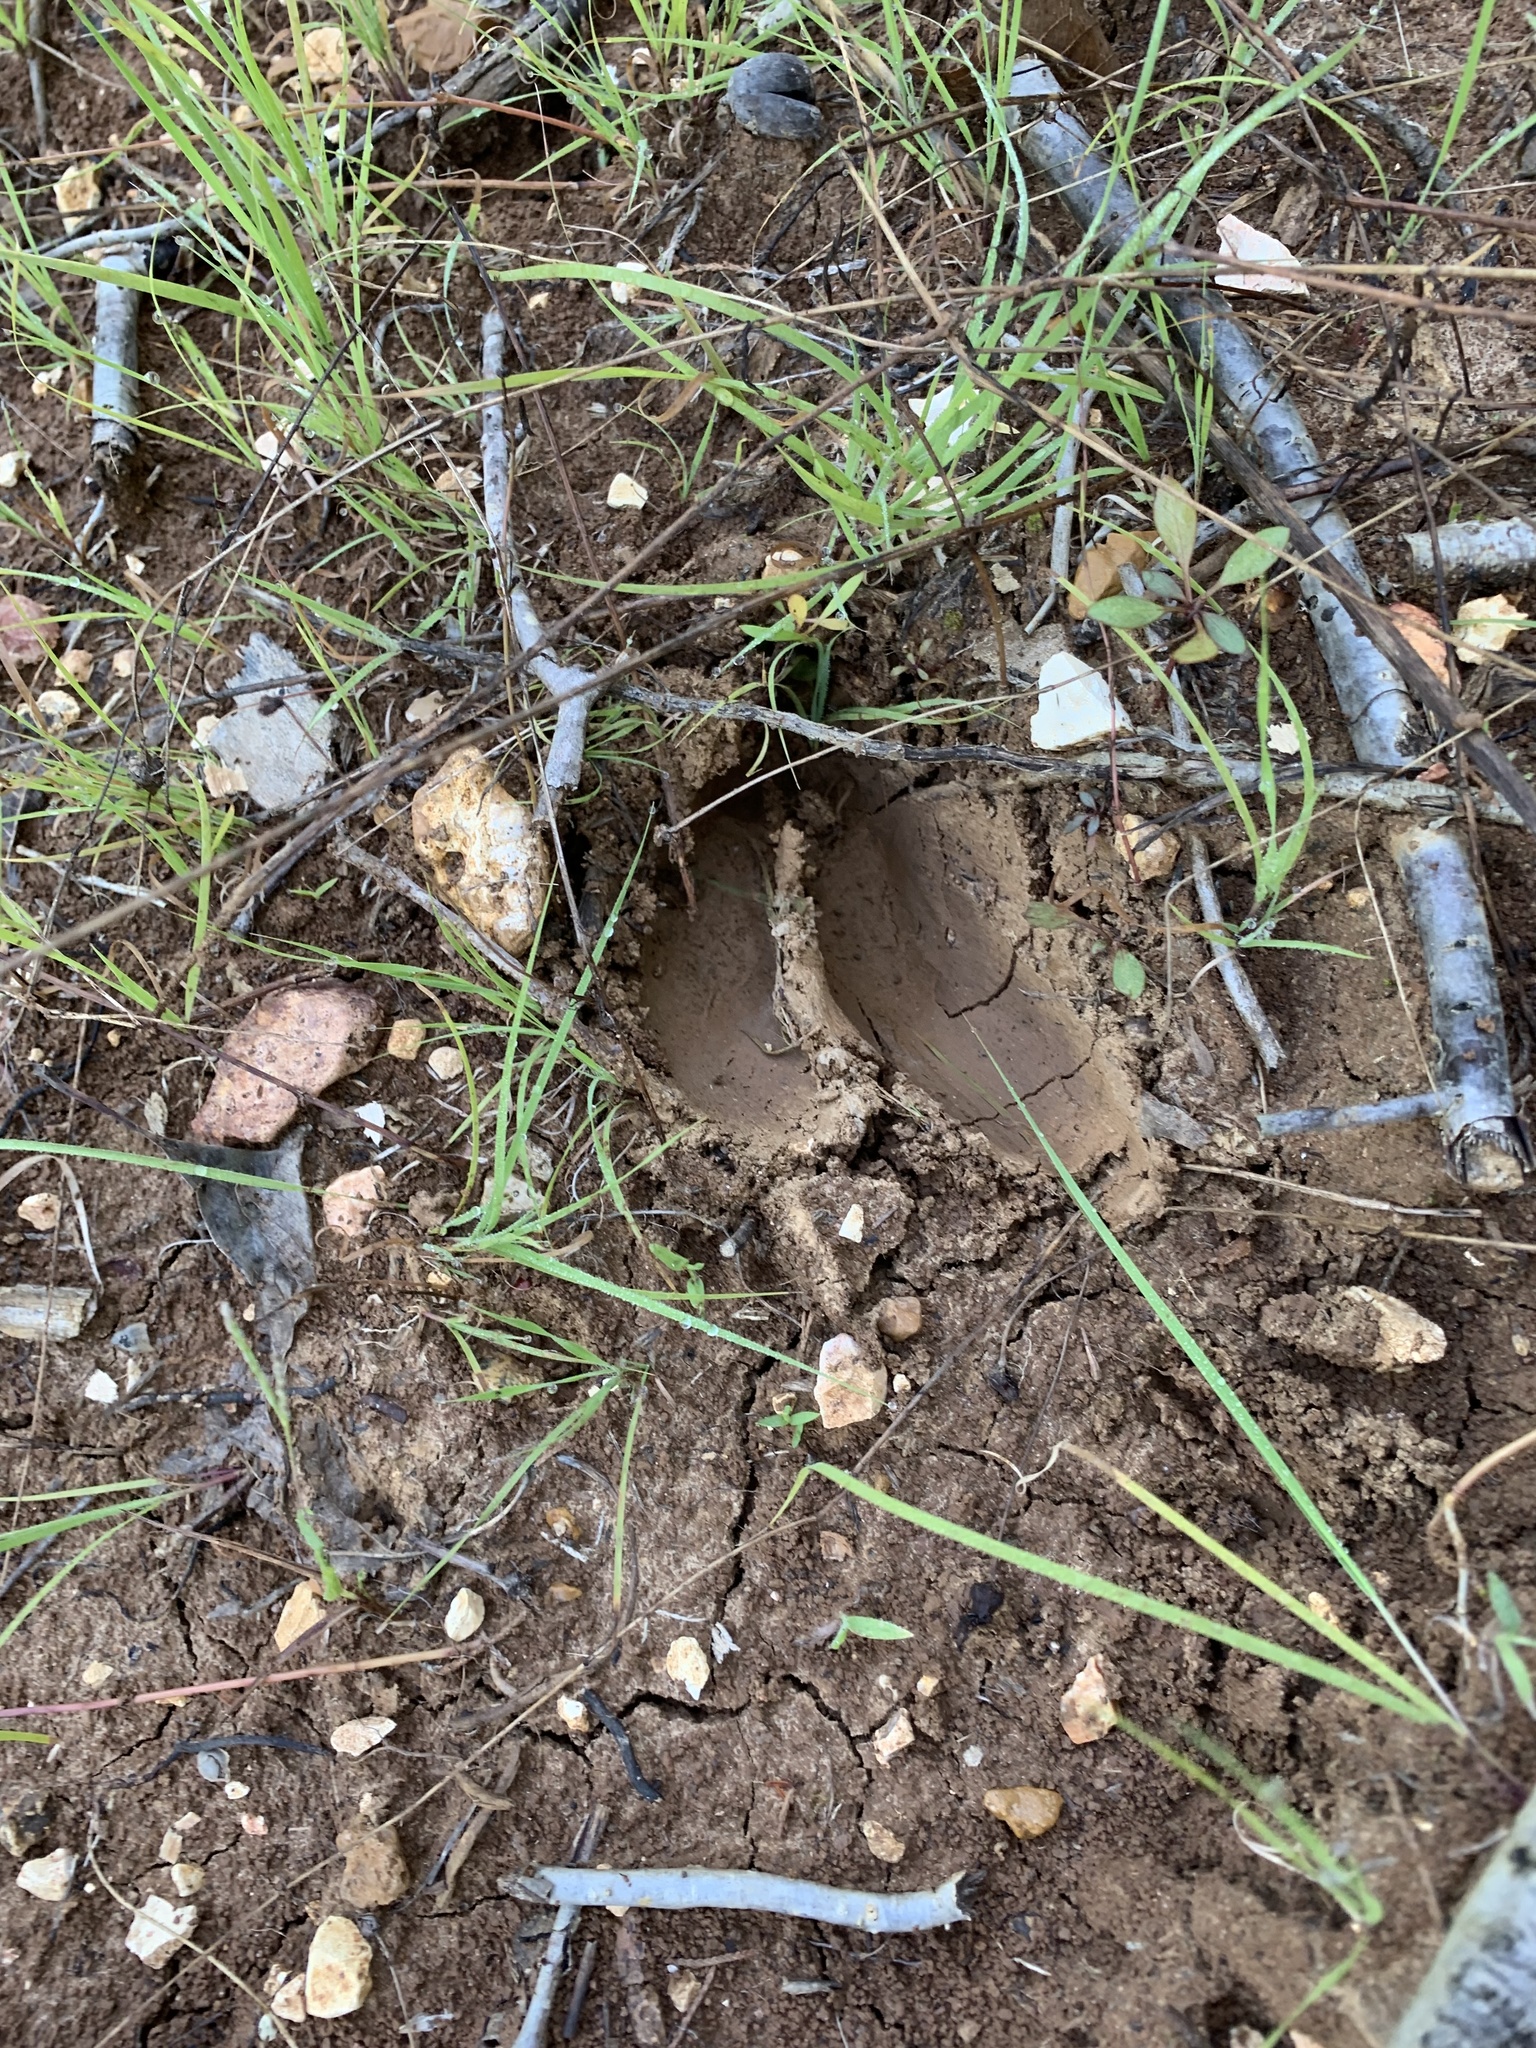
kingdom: Animalia
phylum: Chordata
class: Mammalia
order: Artiodactyla
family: Cervidae
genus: Odocoileus
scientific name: Odocoileus virginianus
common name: White-tailed deer
